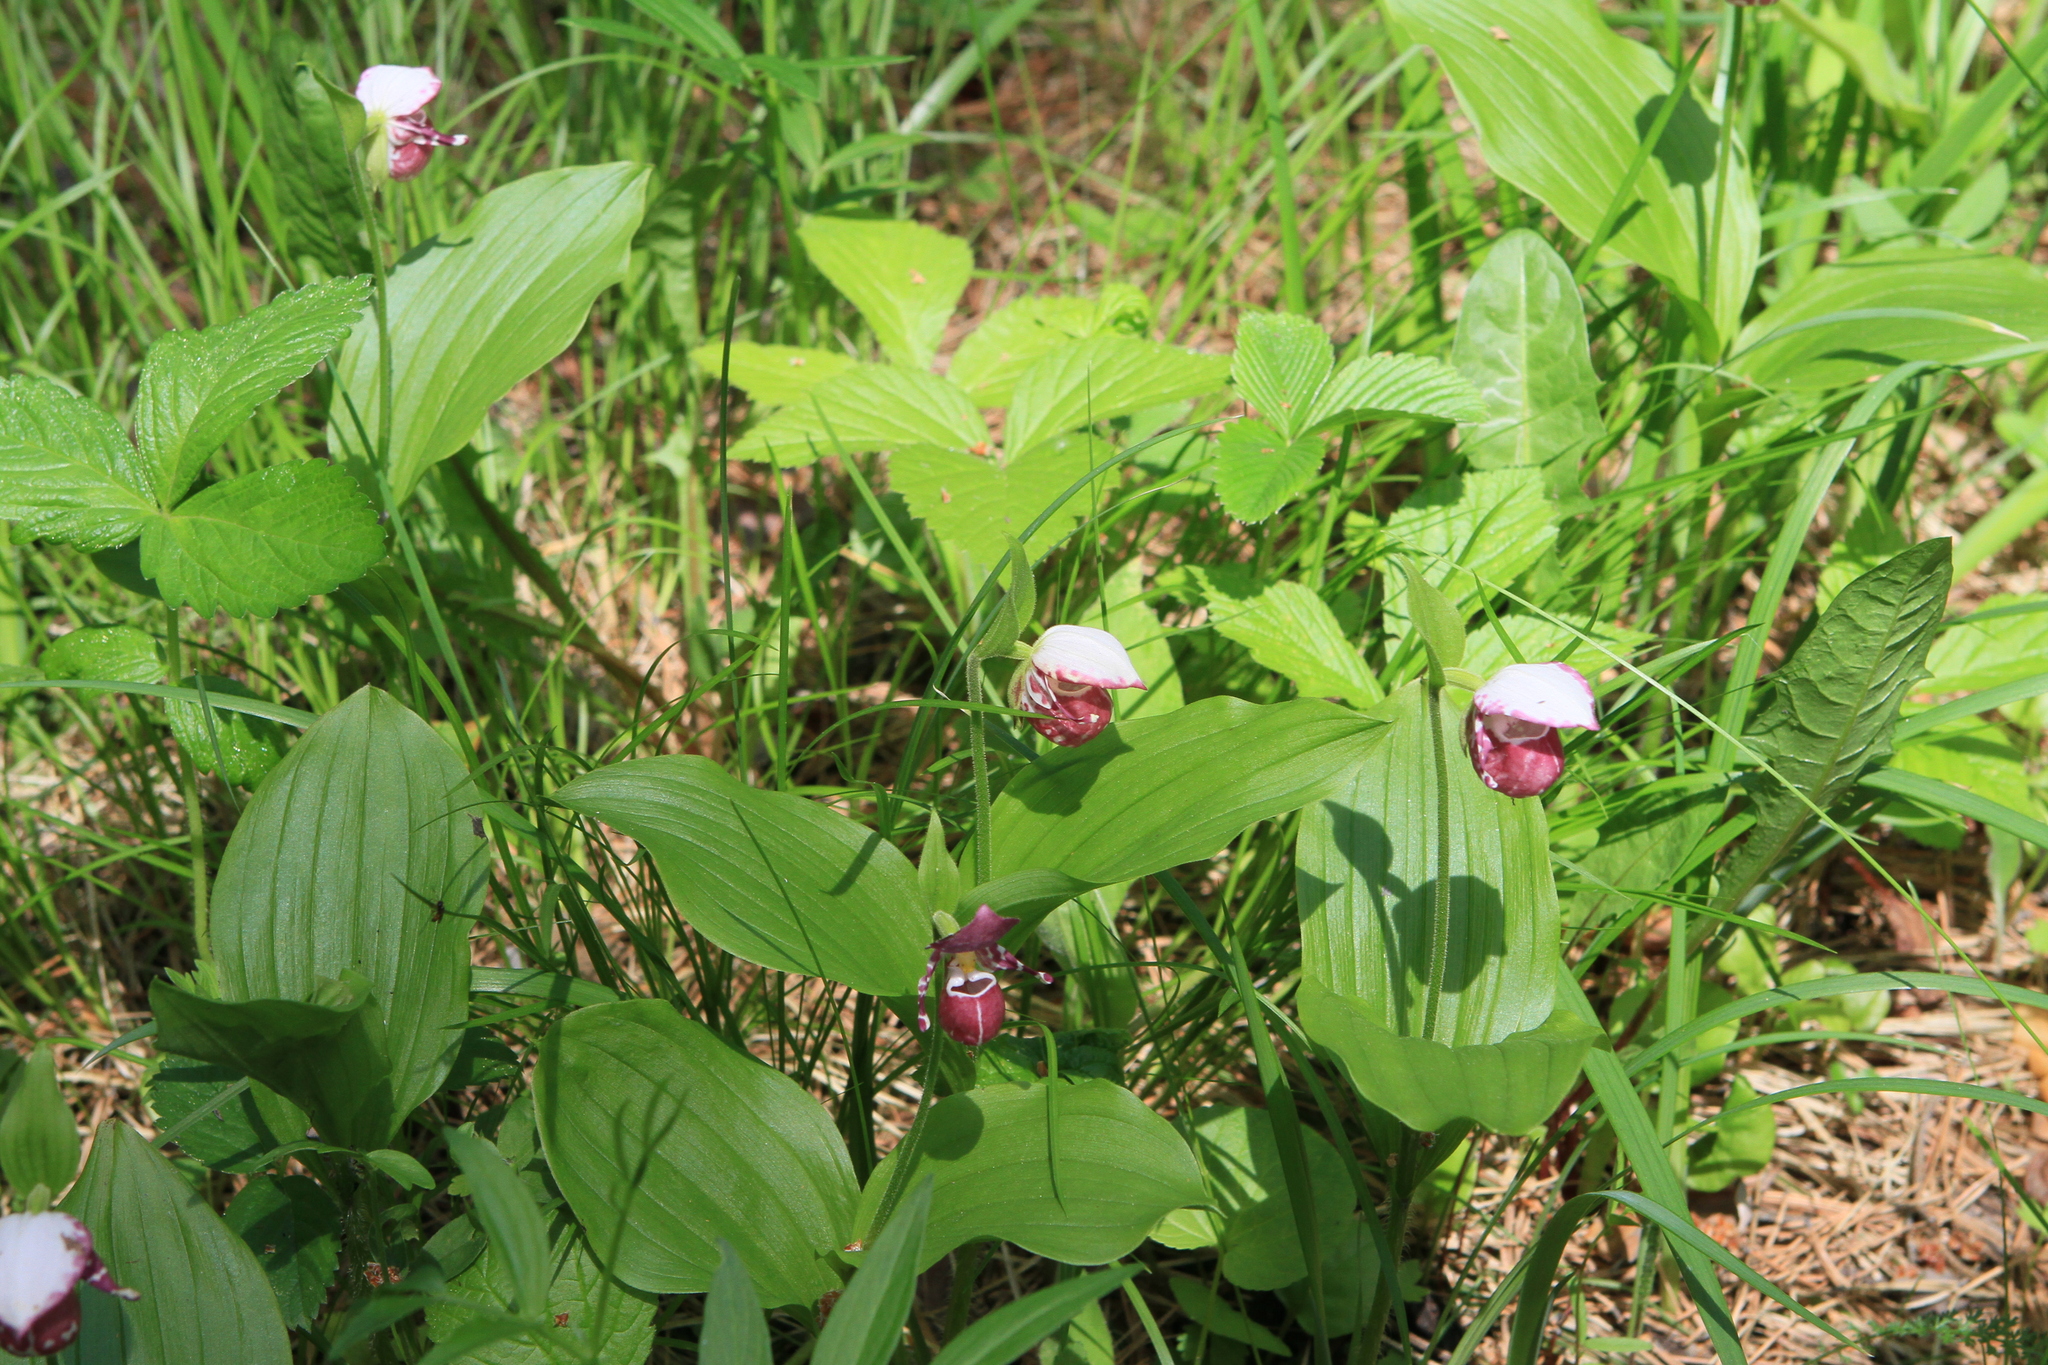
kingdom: Plantae
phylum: Tracheophyta
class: Liliopsida
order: Asparagales
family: Orchidaceae
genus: Cypripedium
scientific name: Cypripedium guttatum
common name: Pink lady slipper
